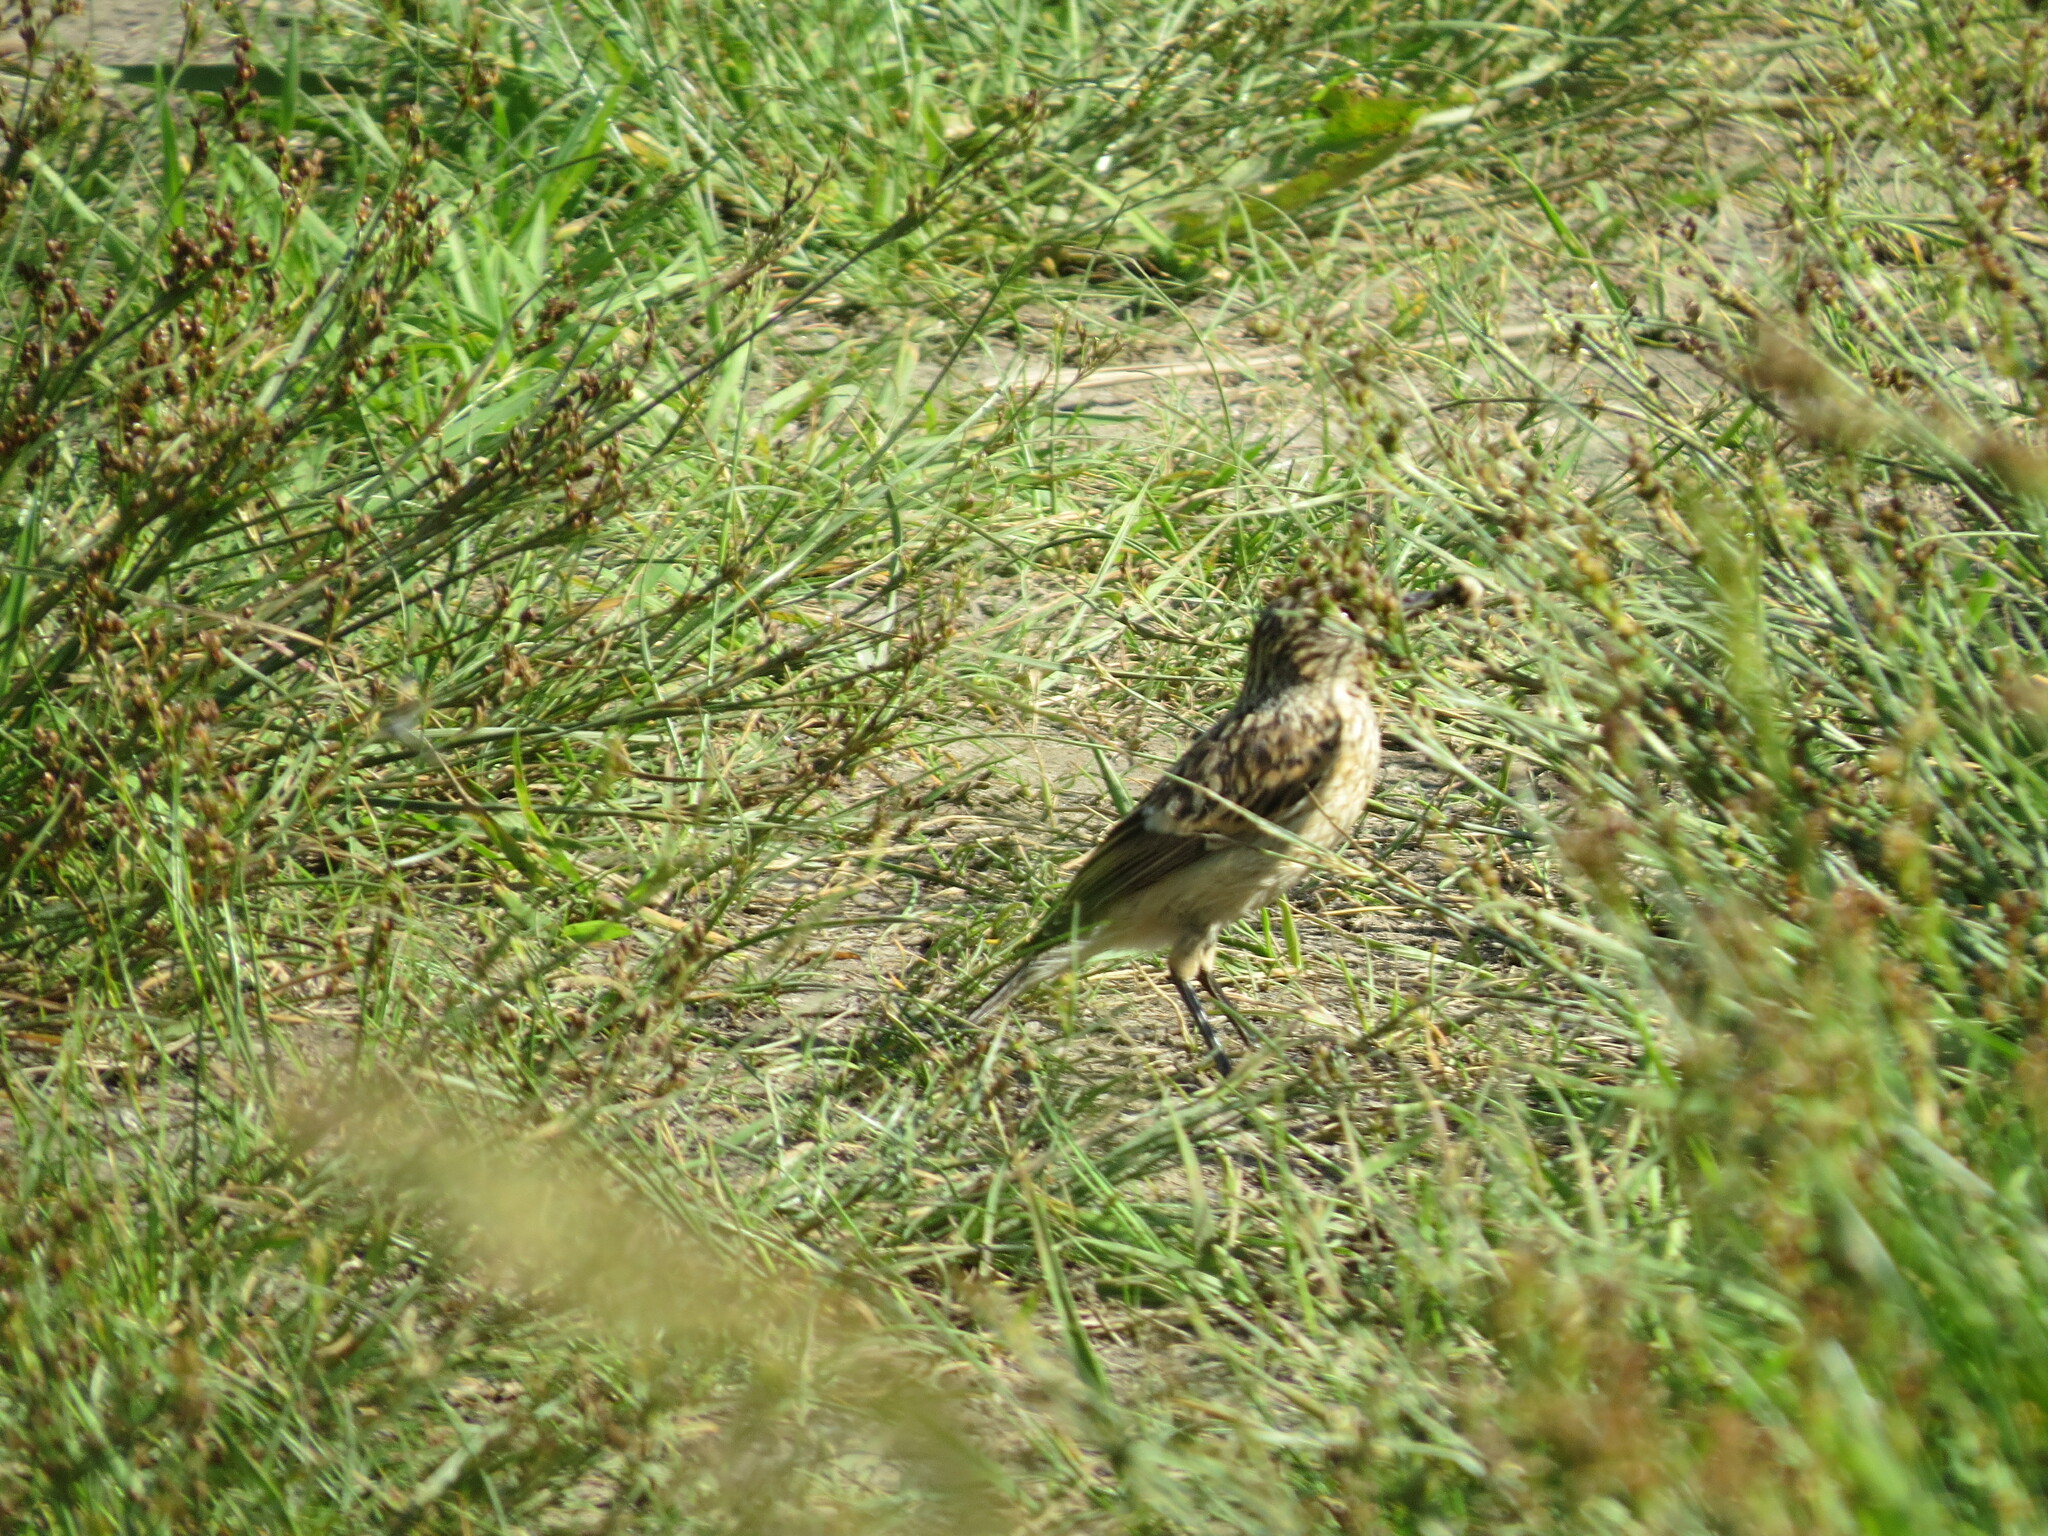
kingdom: Animalia
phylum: Chordata
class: Aves
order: Passeriformes
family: Muscicapidae
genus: Oenanthe
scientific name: Oenanthe oenanthe
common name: Northern wheatear
